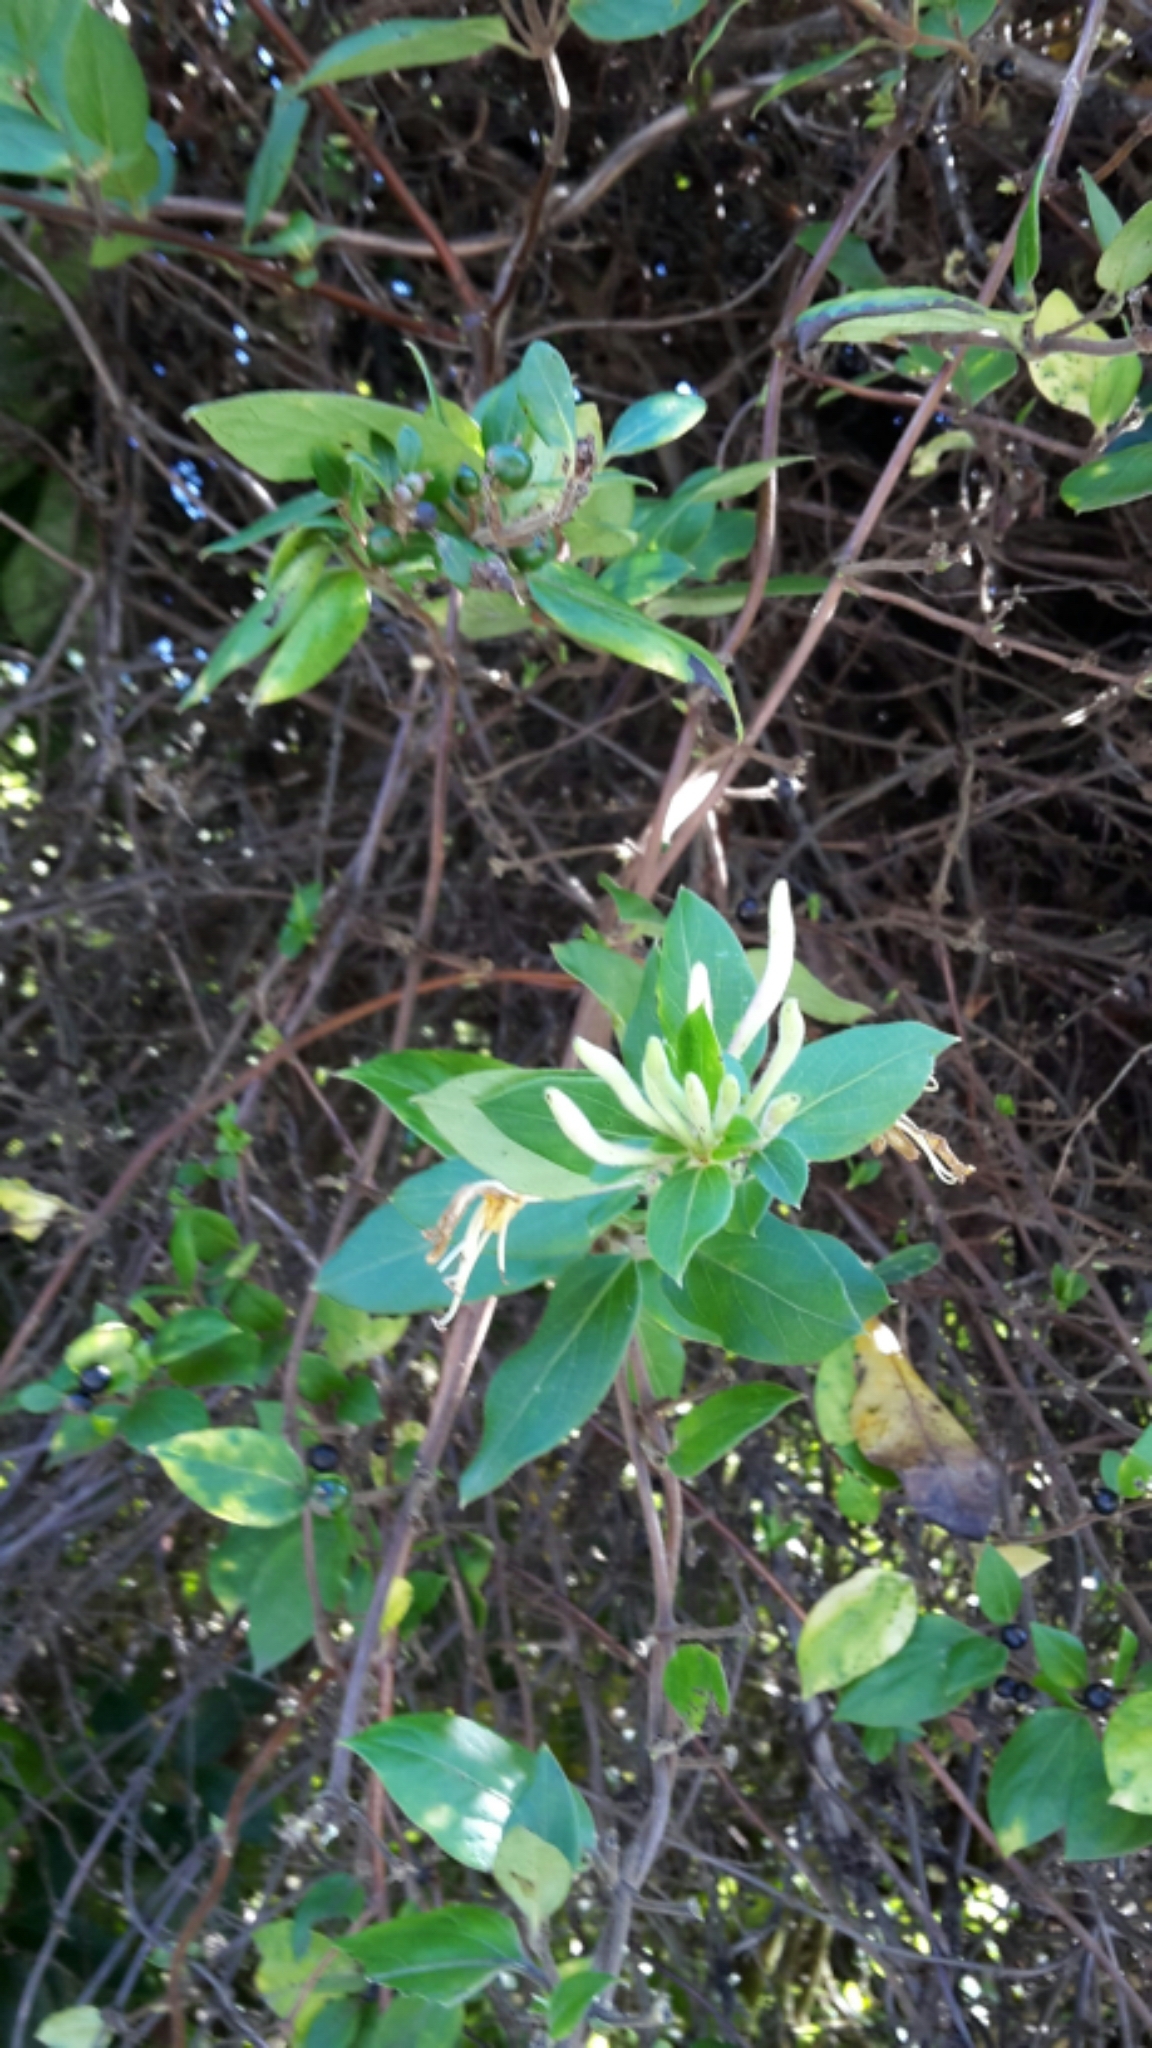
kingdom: Plantae
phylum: Tracheophyta
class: Magnoliopsida
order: Dipsacales
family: Caprifoliaceae
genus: Lonicera
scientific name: Lonicera japonica
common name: Japanese honeysuckle
